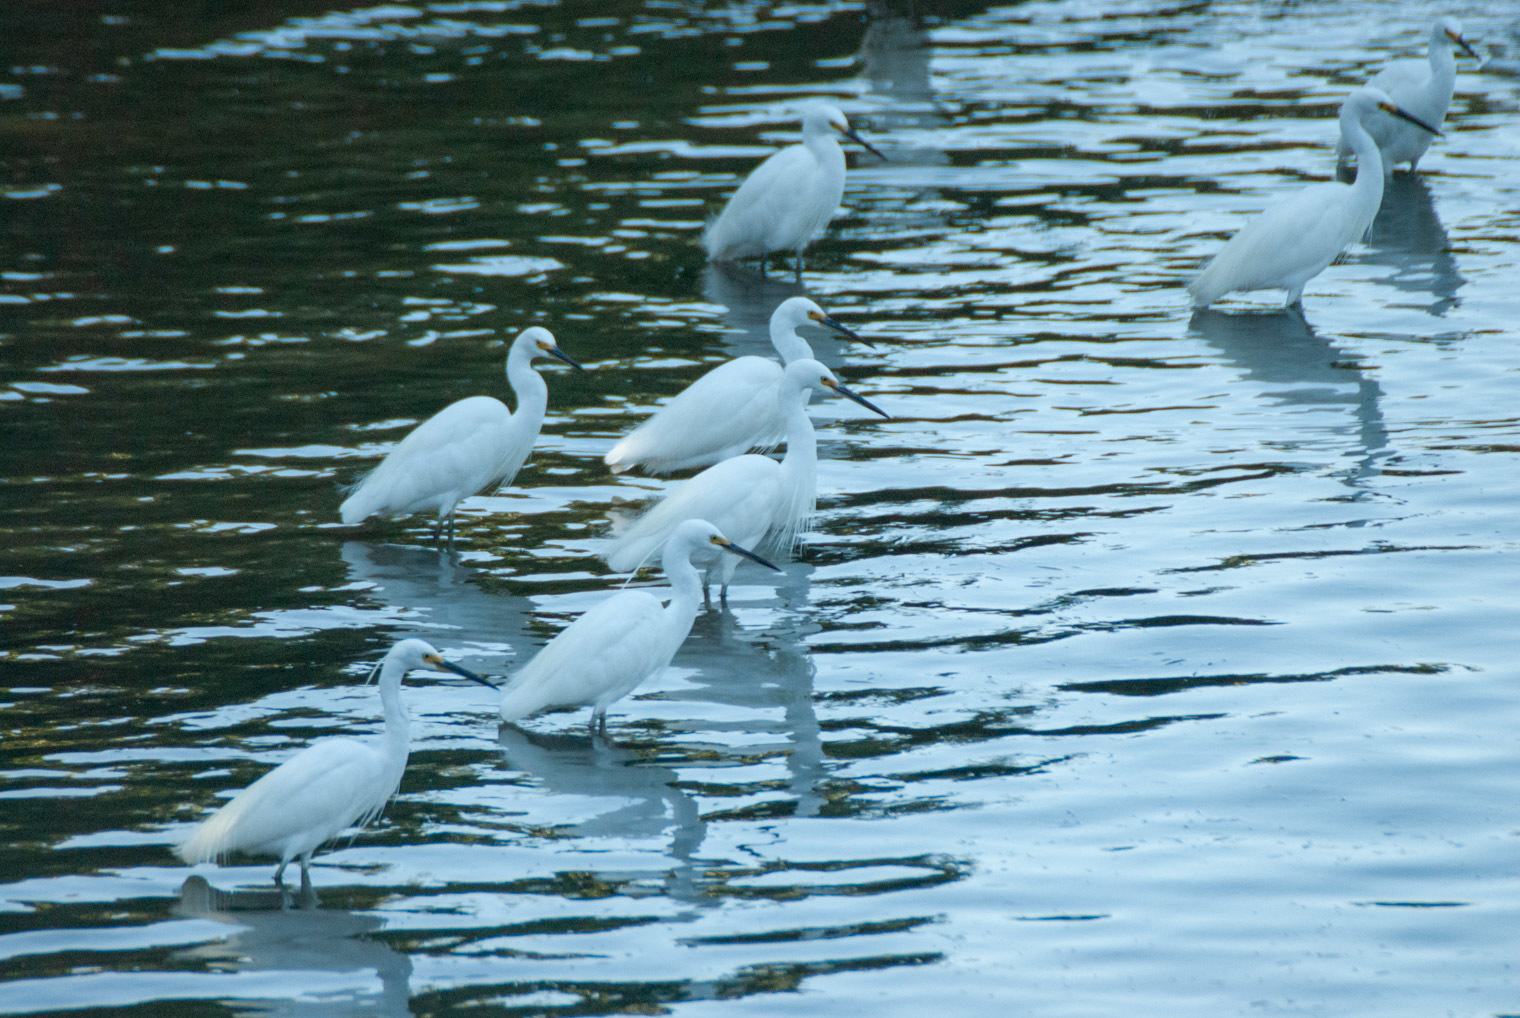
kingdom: Animalia
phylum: Chordata
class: Aves
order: Pelecaniformes
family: Ardeidae
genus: Egretta
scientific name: Egretta garzetta
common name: Little egret
